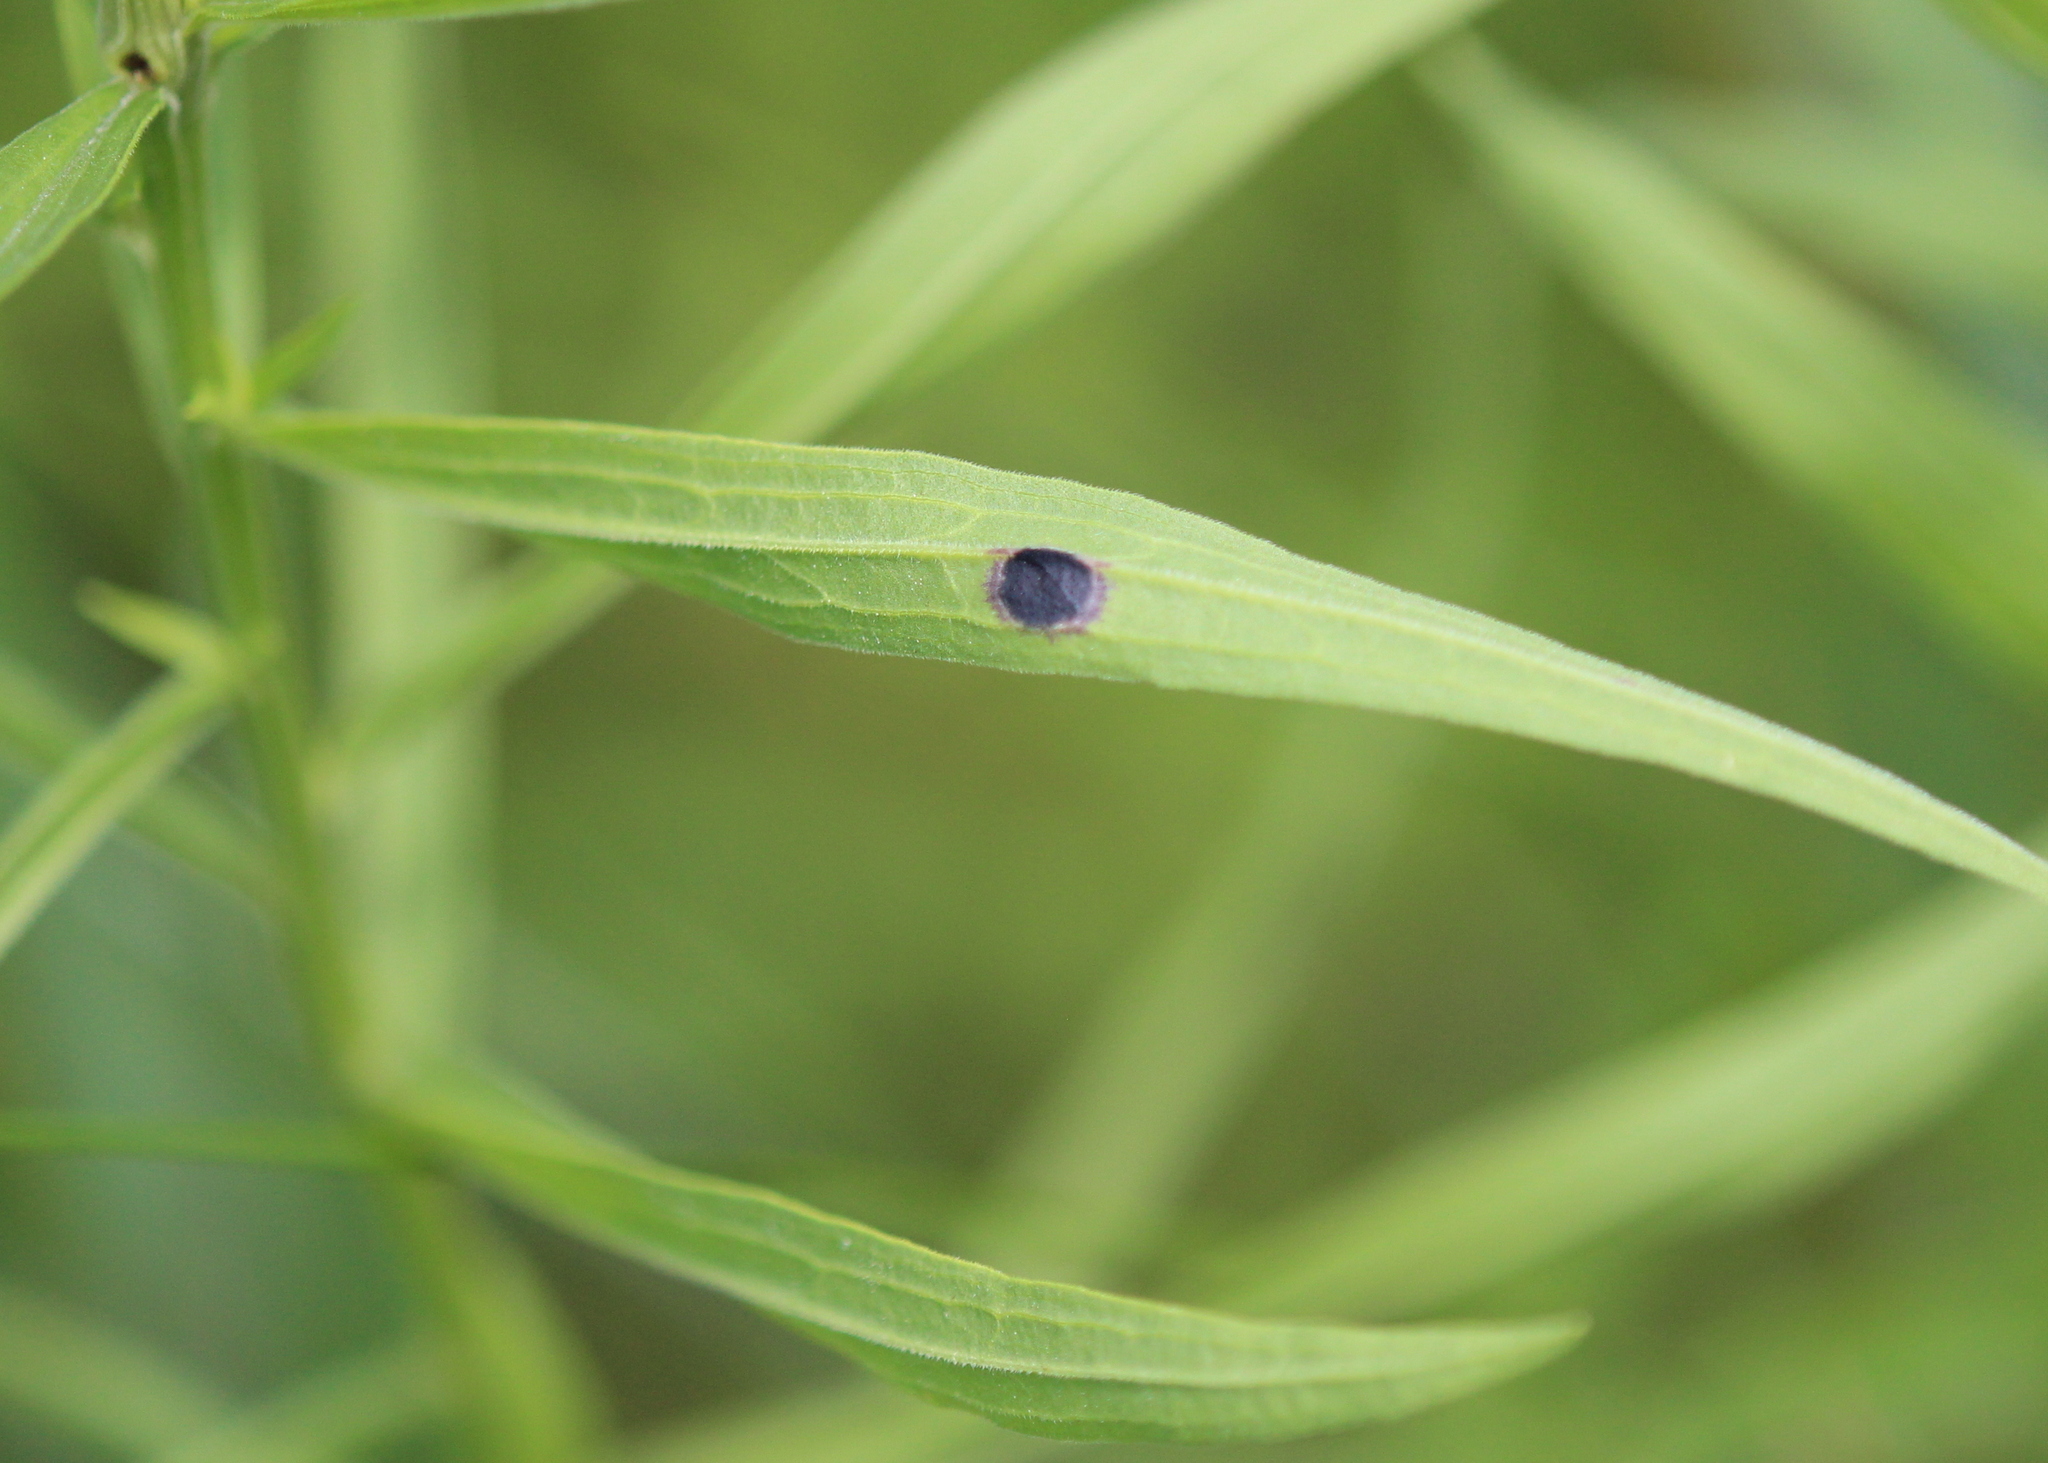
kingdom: Animalia
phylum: Arthropoda
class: Insecta
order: Diptera
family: Cecidomyiidae
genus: Asteromyia
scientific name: Asteromyia euthamiae
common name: Euthamia leaf gall midge
